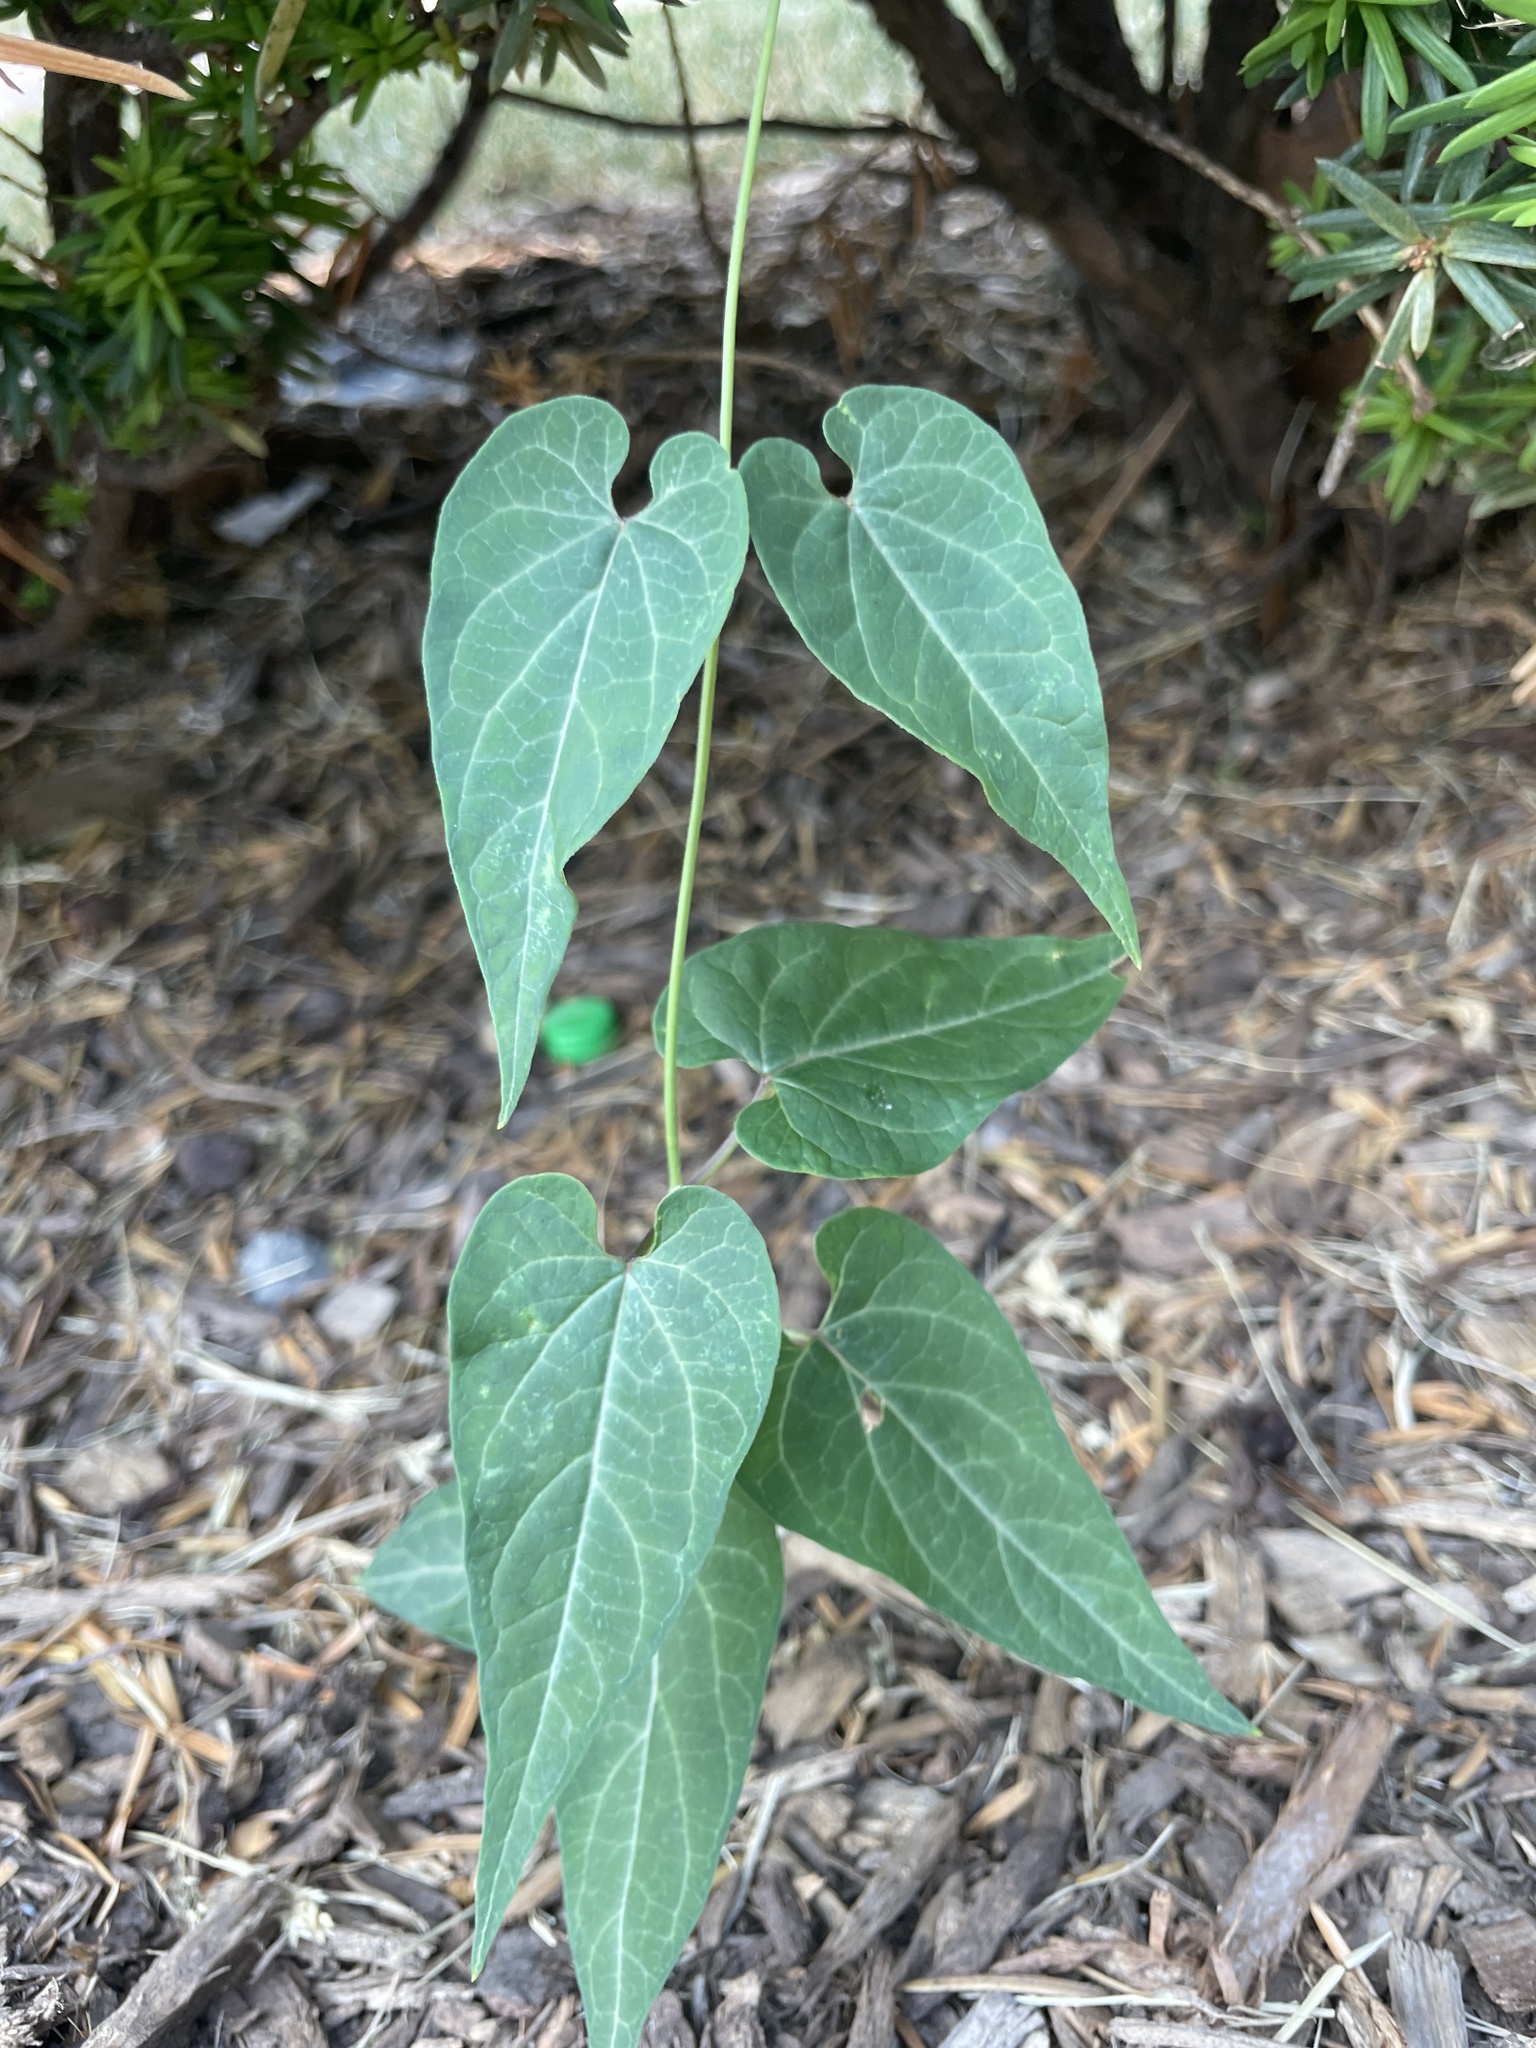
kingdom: Plantae
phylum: Tracheophyta
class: Magnoliopsida
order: Gentianales
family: Apocynaceae
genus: Cynanchum
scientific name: Cynanchum laeve
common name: Sandvine
